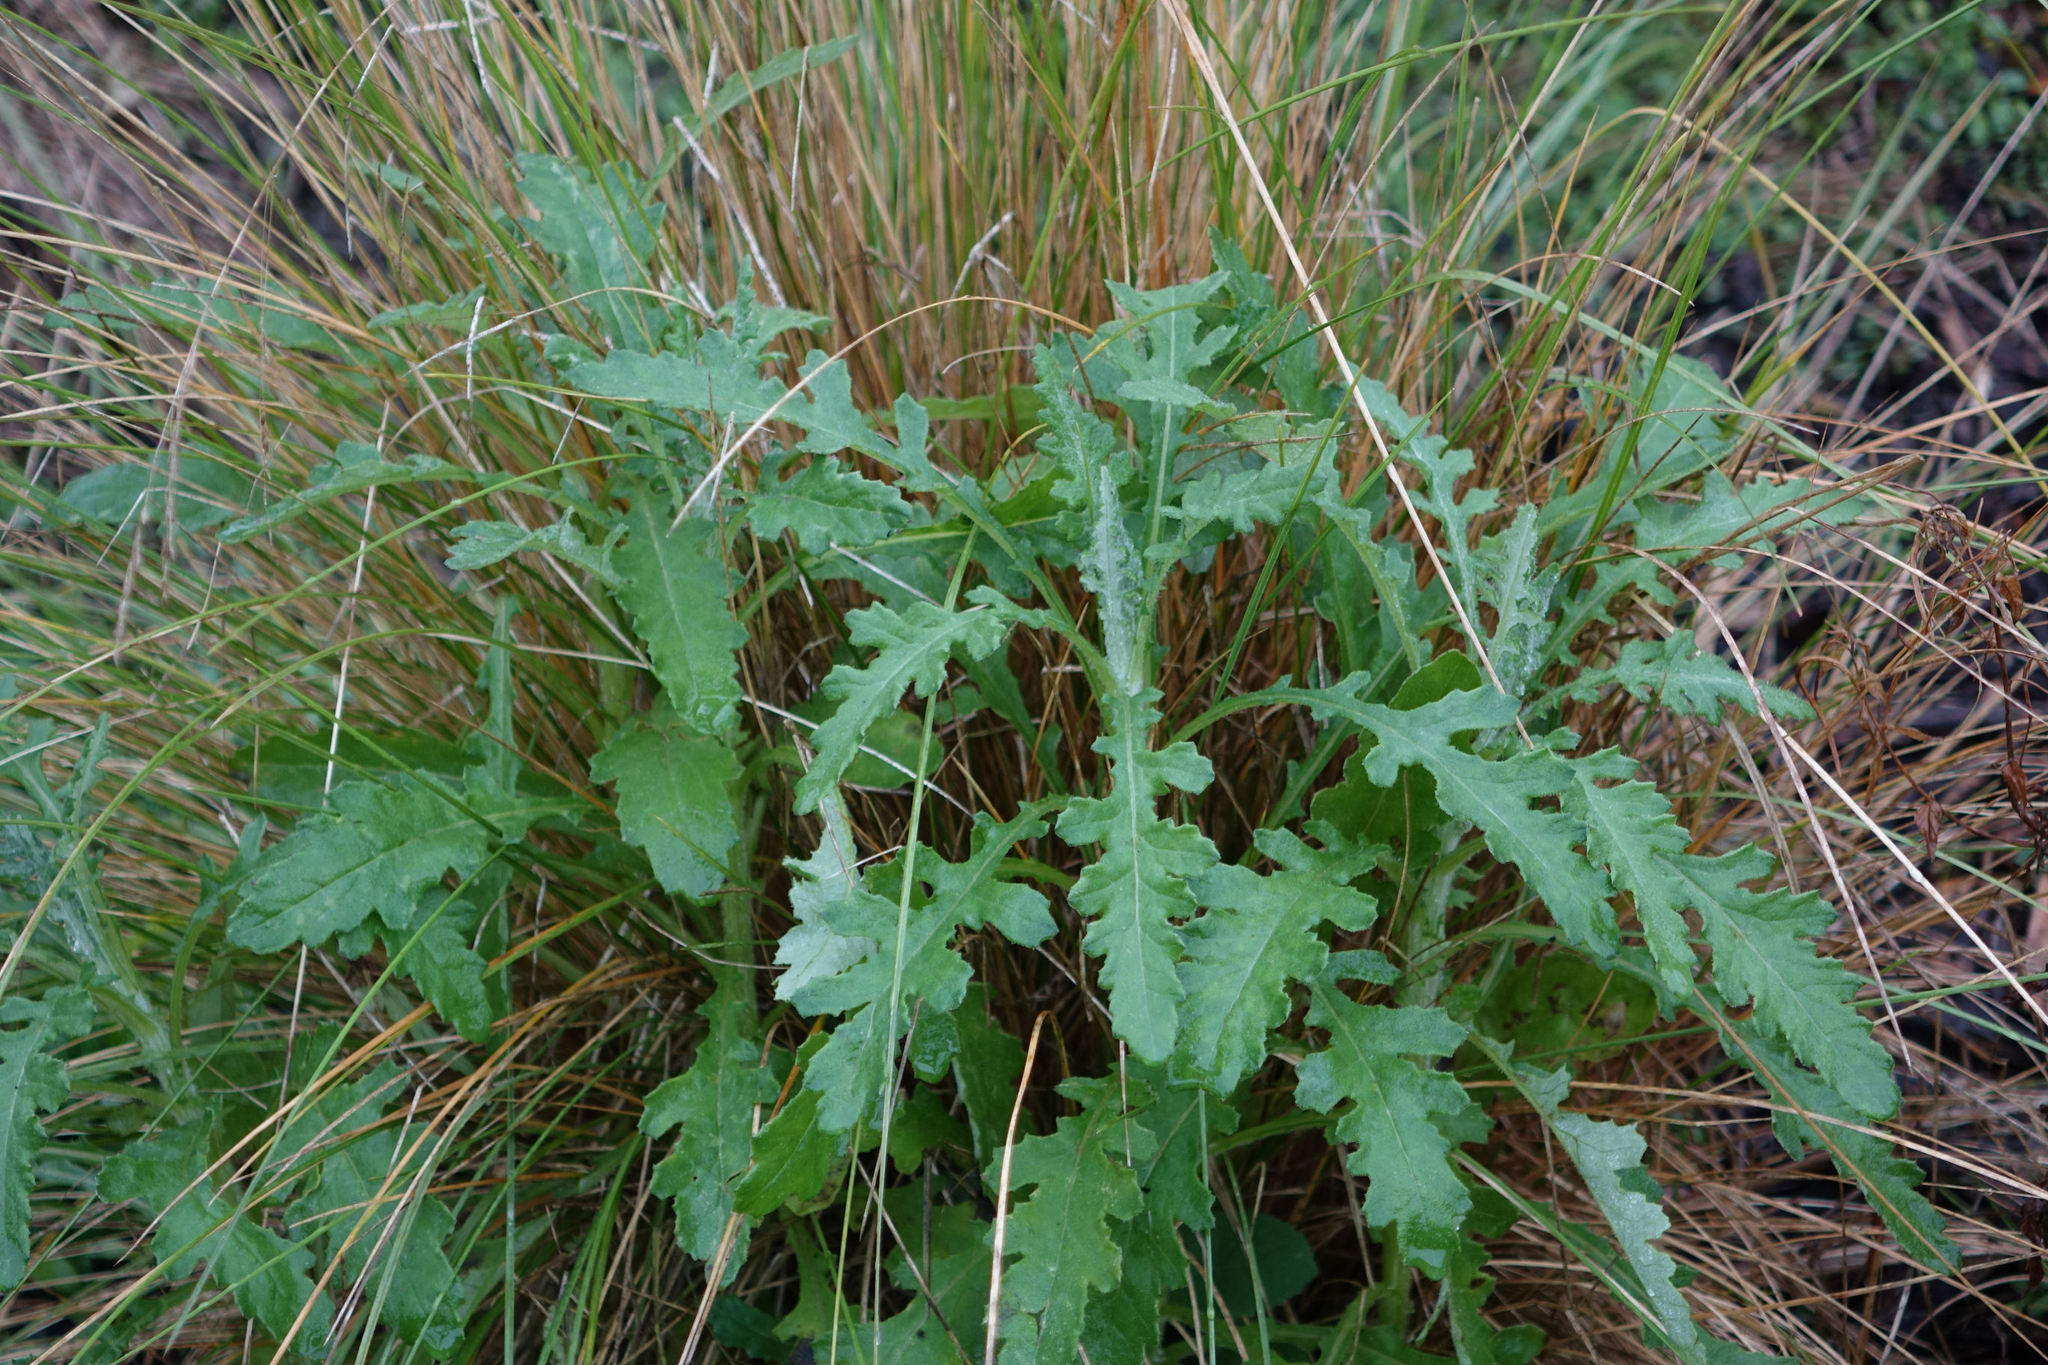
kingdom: Plantae
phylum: Tracheophyta
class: Magnoliopsida
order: Asterales
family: Asteraceae
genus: Senecio
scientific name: Senecio glomeratus
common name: Cutleaf burnweed
